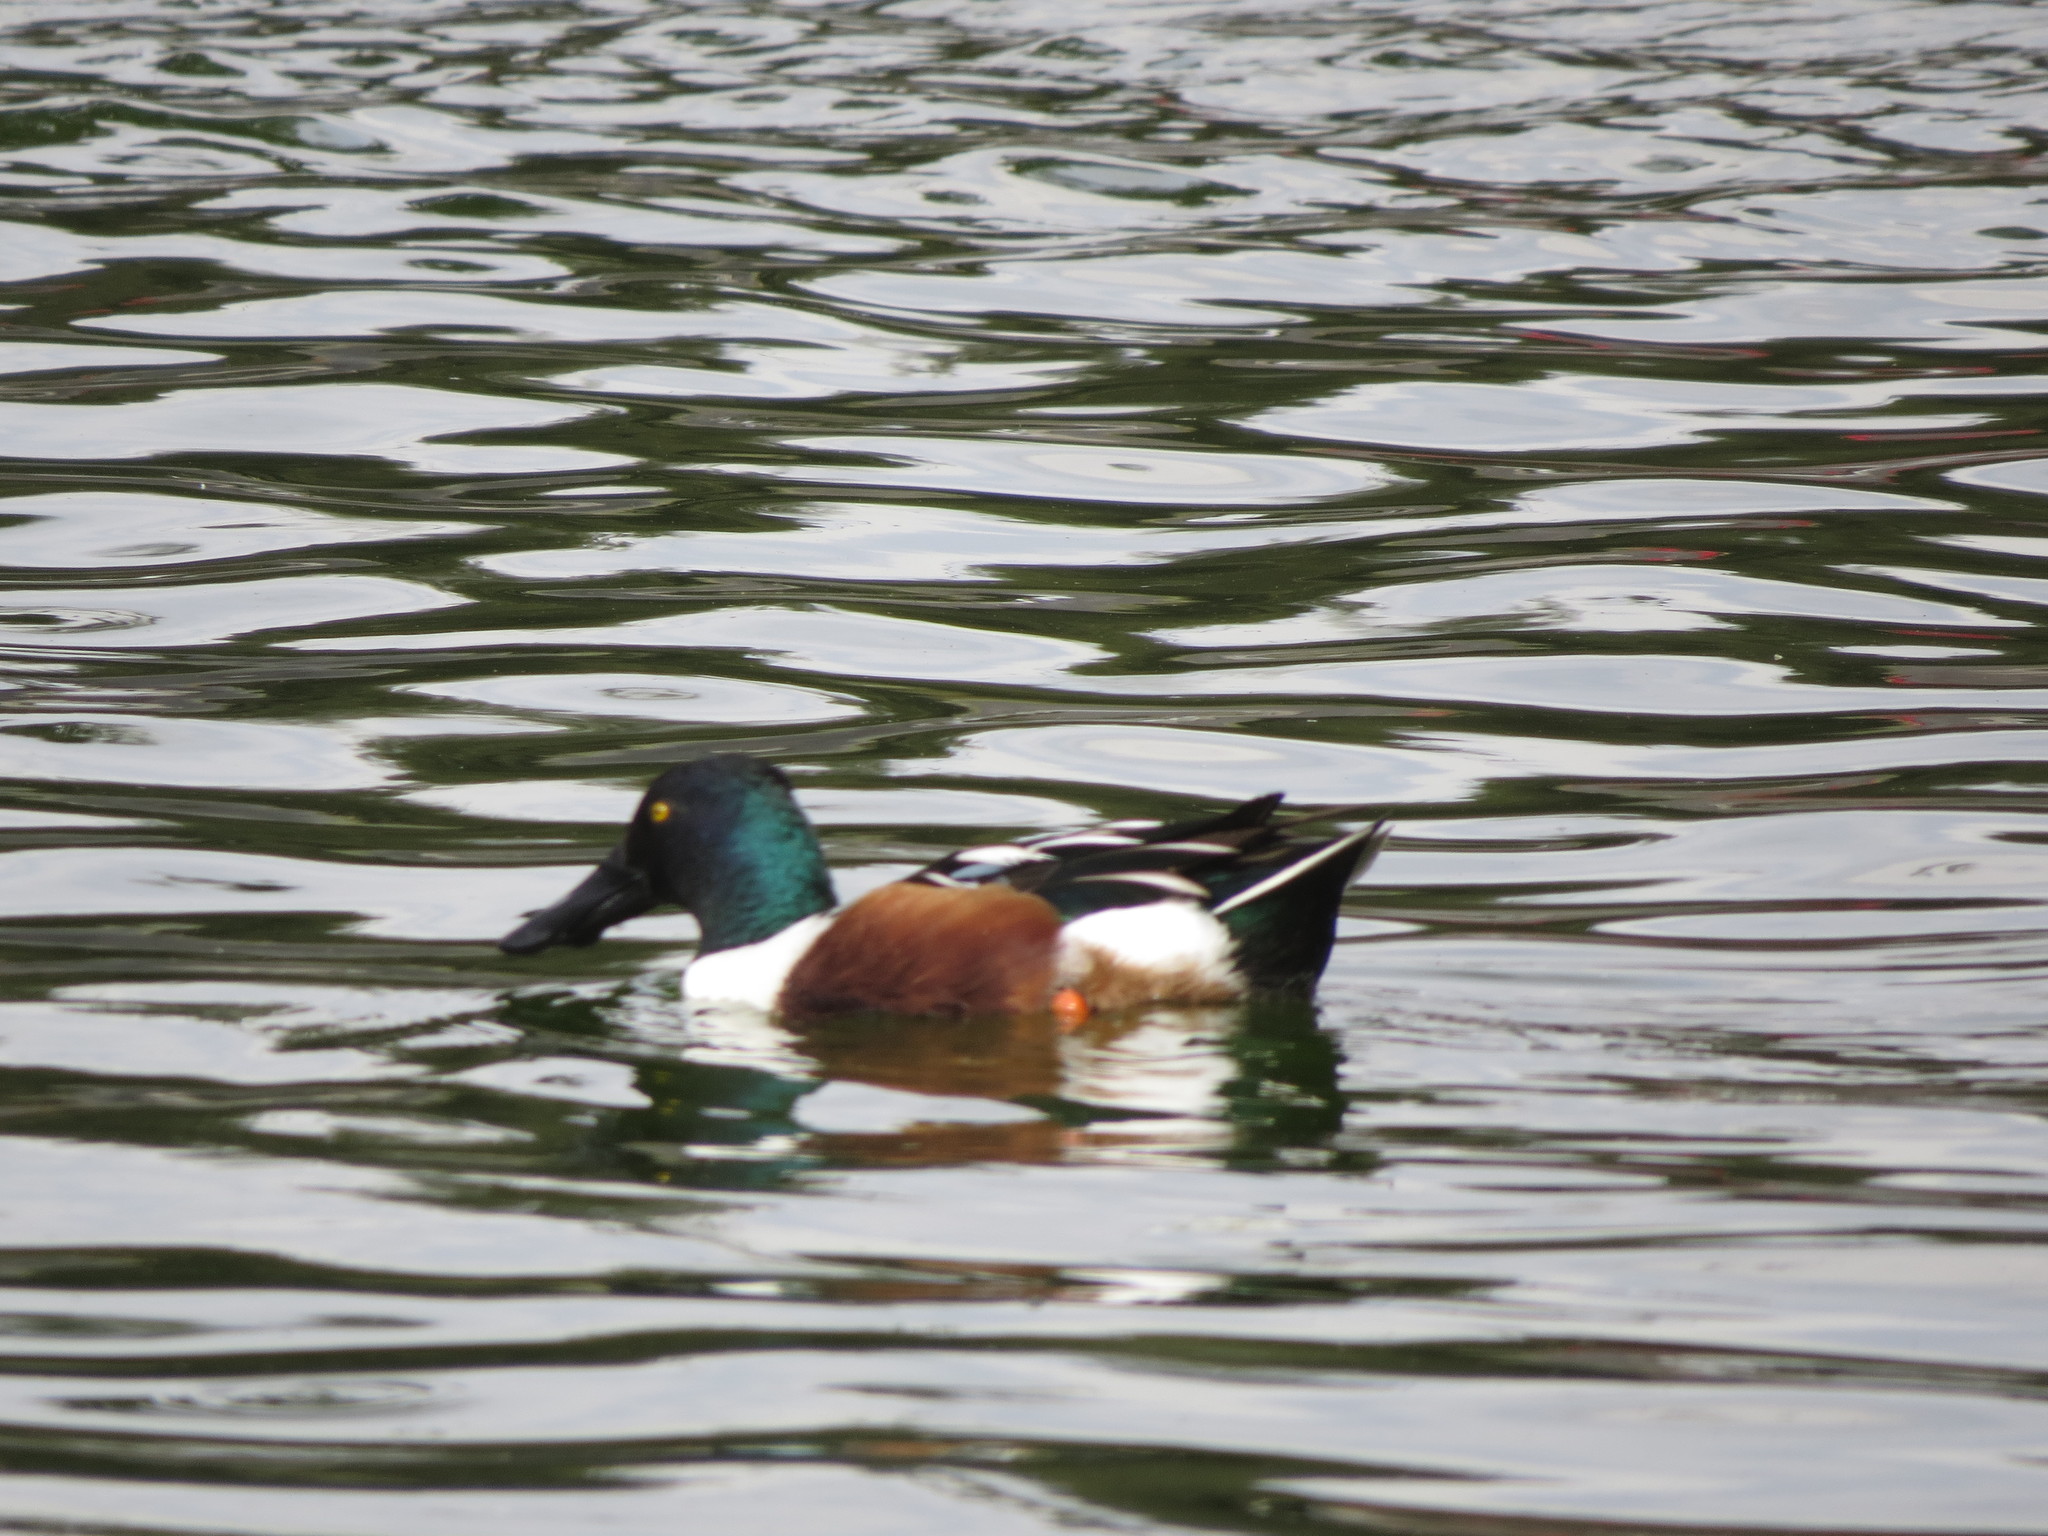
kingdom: Animalia
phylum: Chordata
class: Aves
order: Anseriformes
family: Anatidae
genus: Spatula
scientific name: Spatula clypeata
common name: Northern shoveler
